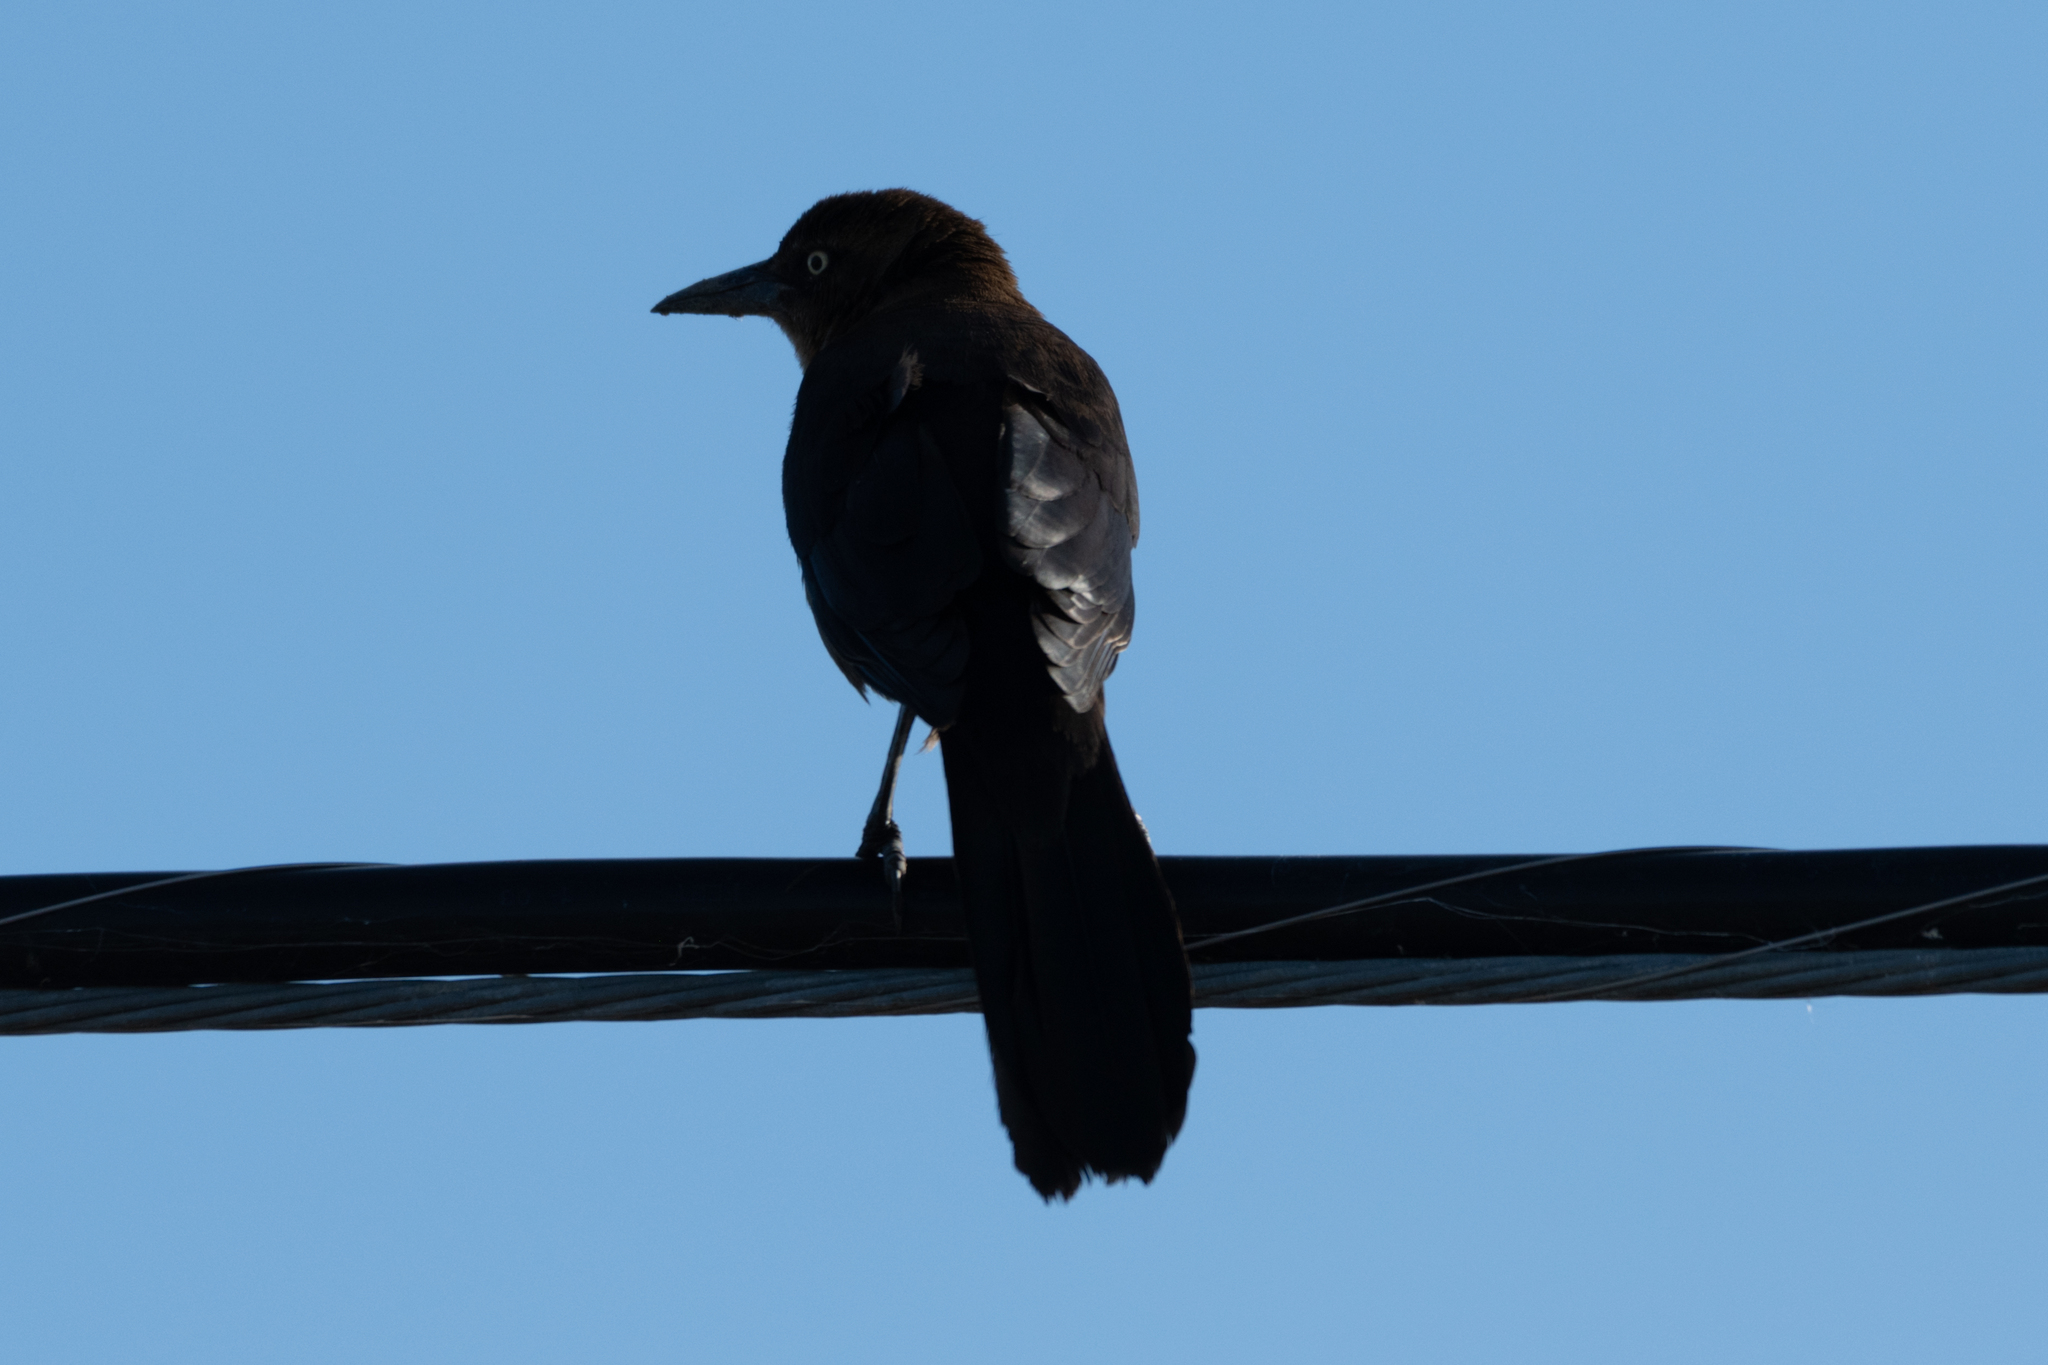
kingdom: Animalia
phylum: Chordata
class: Aves
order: Passeriformes
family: Icteridae
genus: Quiscalus
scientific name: Quiscalus mexicanus
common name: Great-tailed grackle
